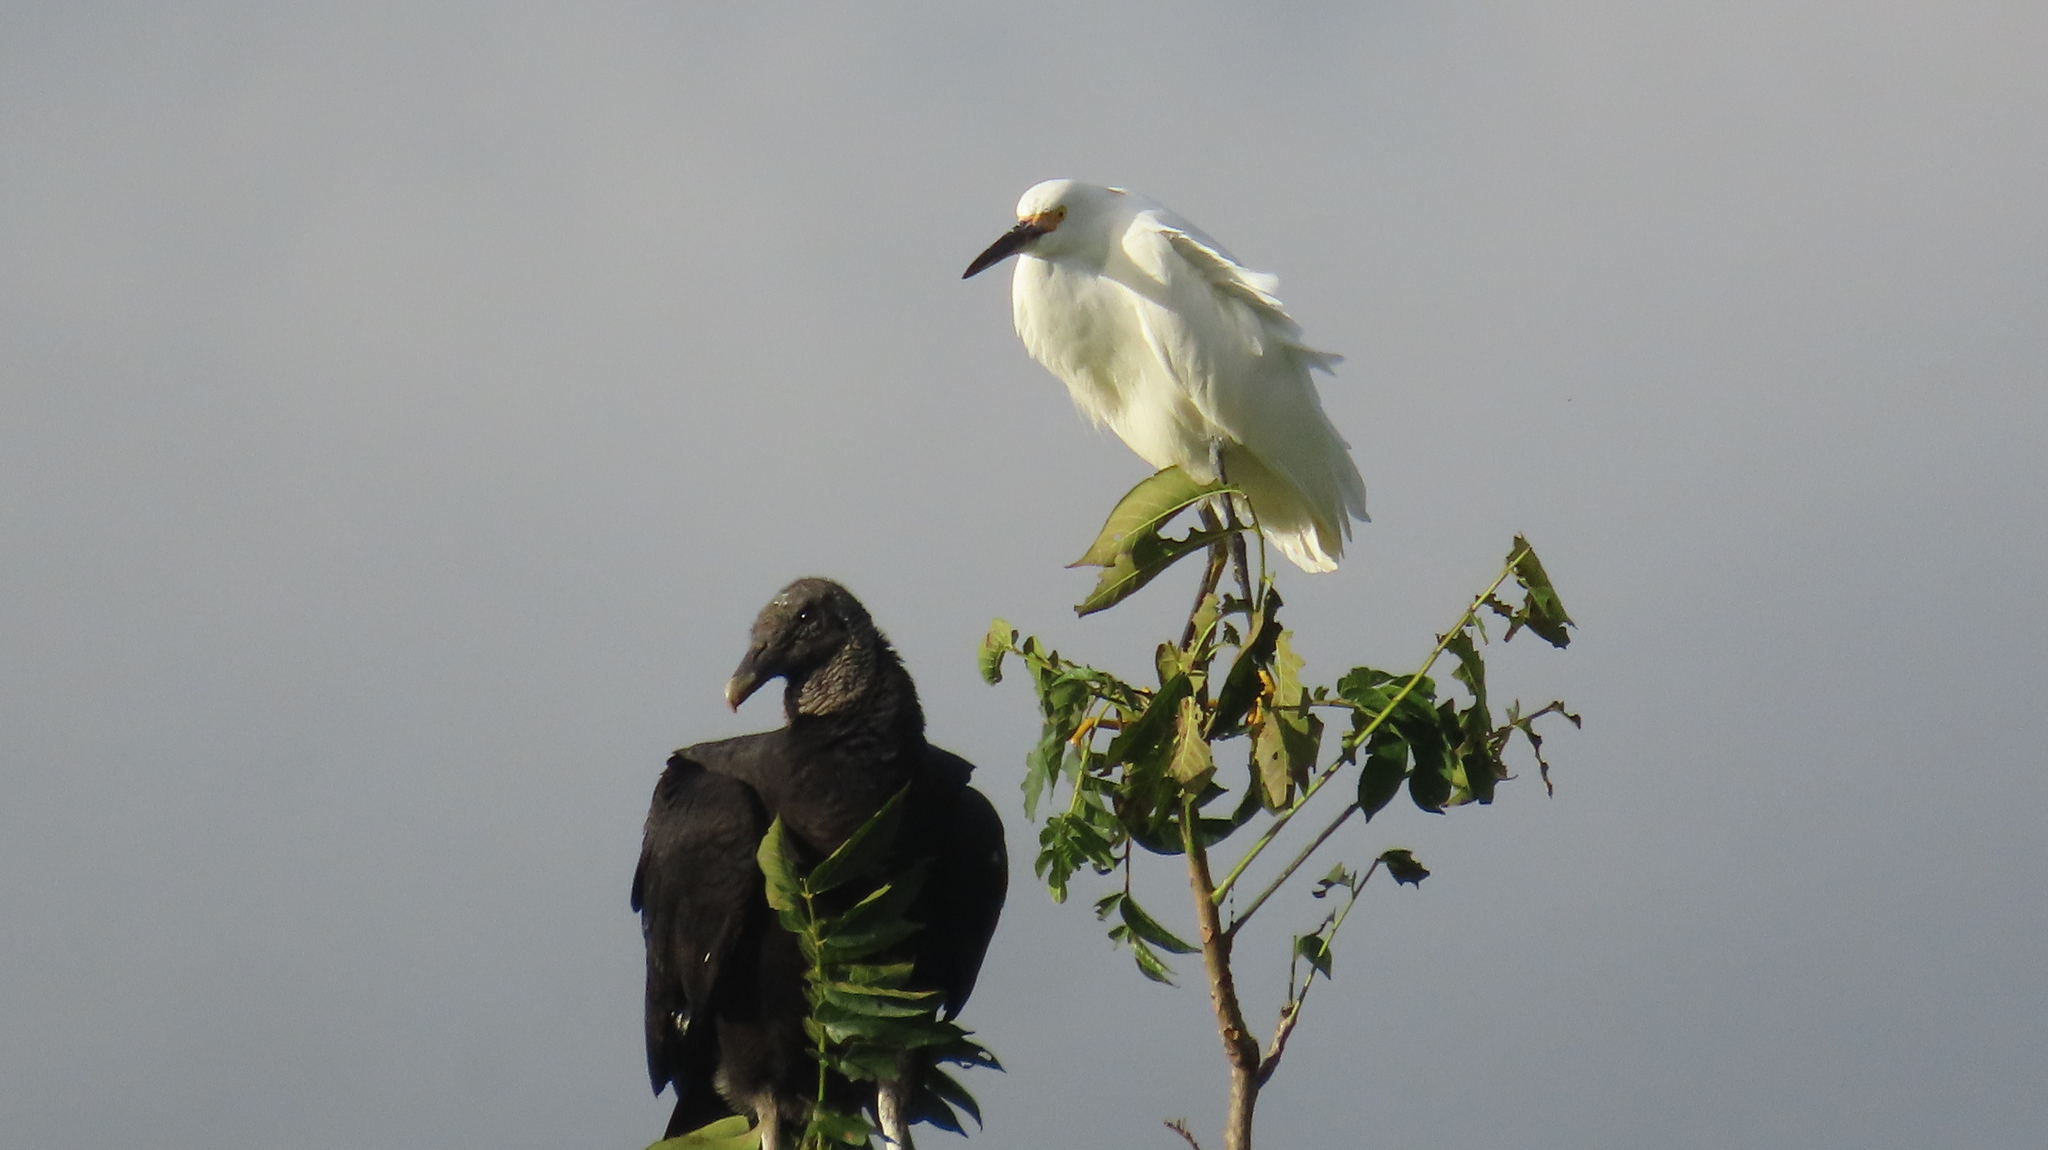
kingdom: Animalia
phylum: Chordata
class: Aves
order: Pelecaniformes
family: Ardeidae
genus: Egretta
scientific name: Egretta thula
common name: Snowy egret
